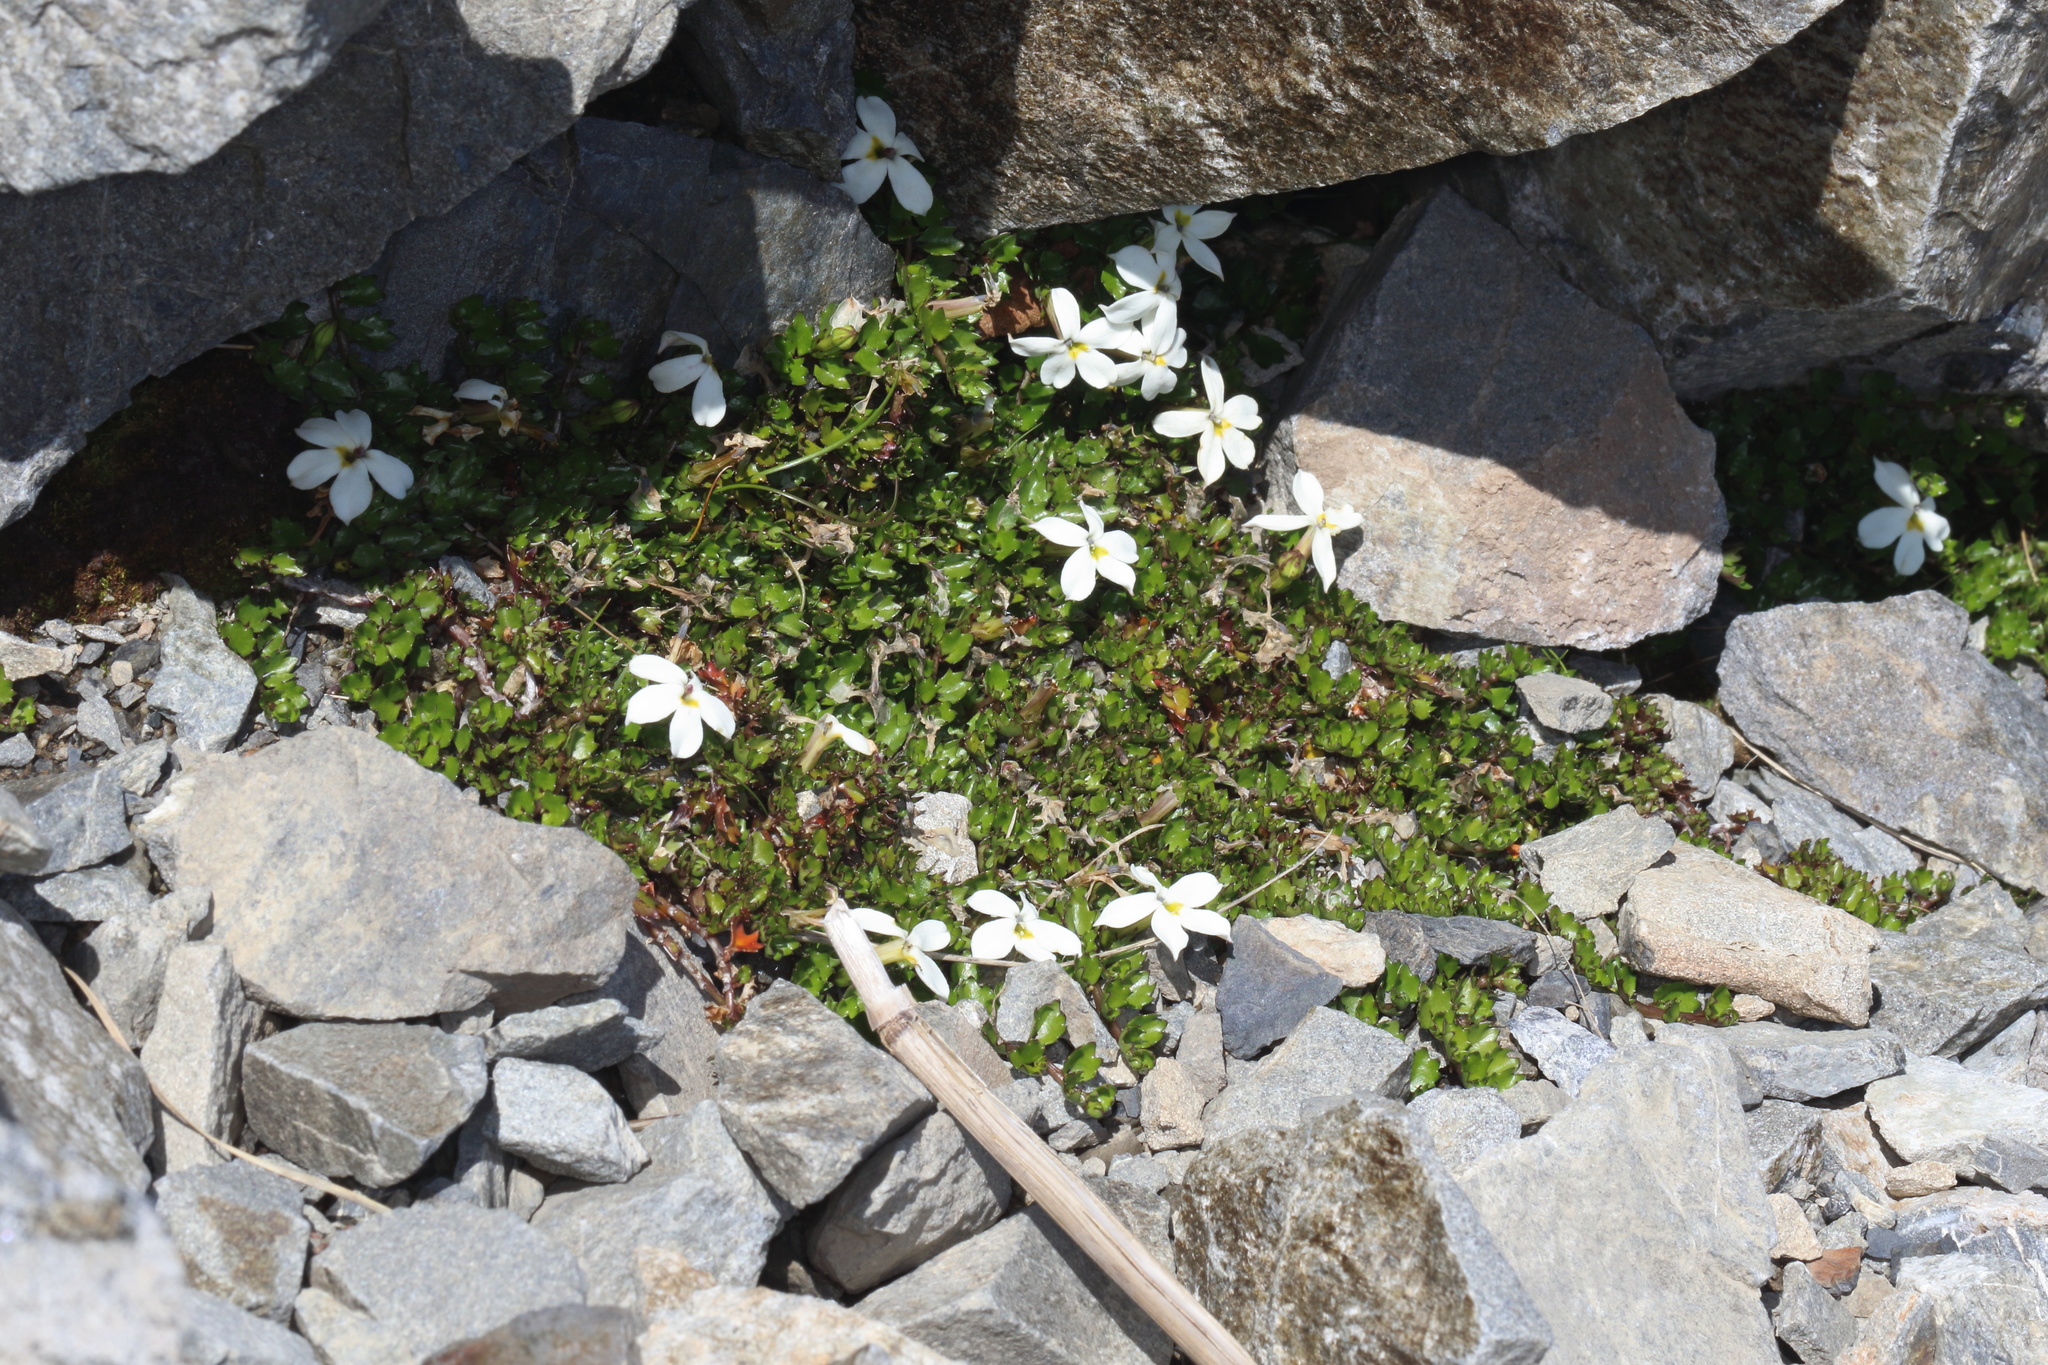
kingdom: Plantae
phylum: Tracheophyta
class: Magnoliopsida
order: Asterales
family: Campanulaceae
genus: Lobelia
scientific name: Lobelia macrodon
